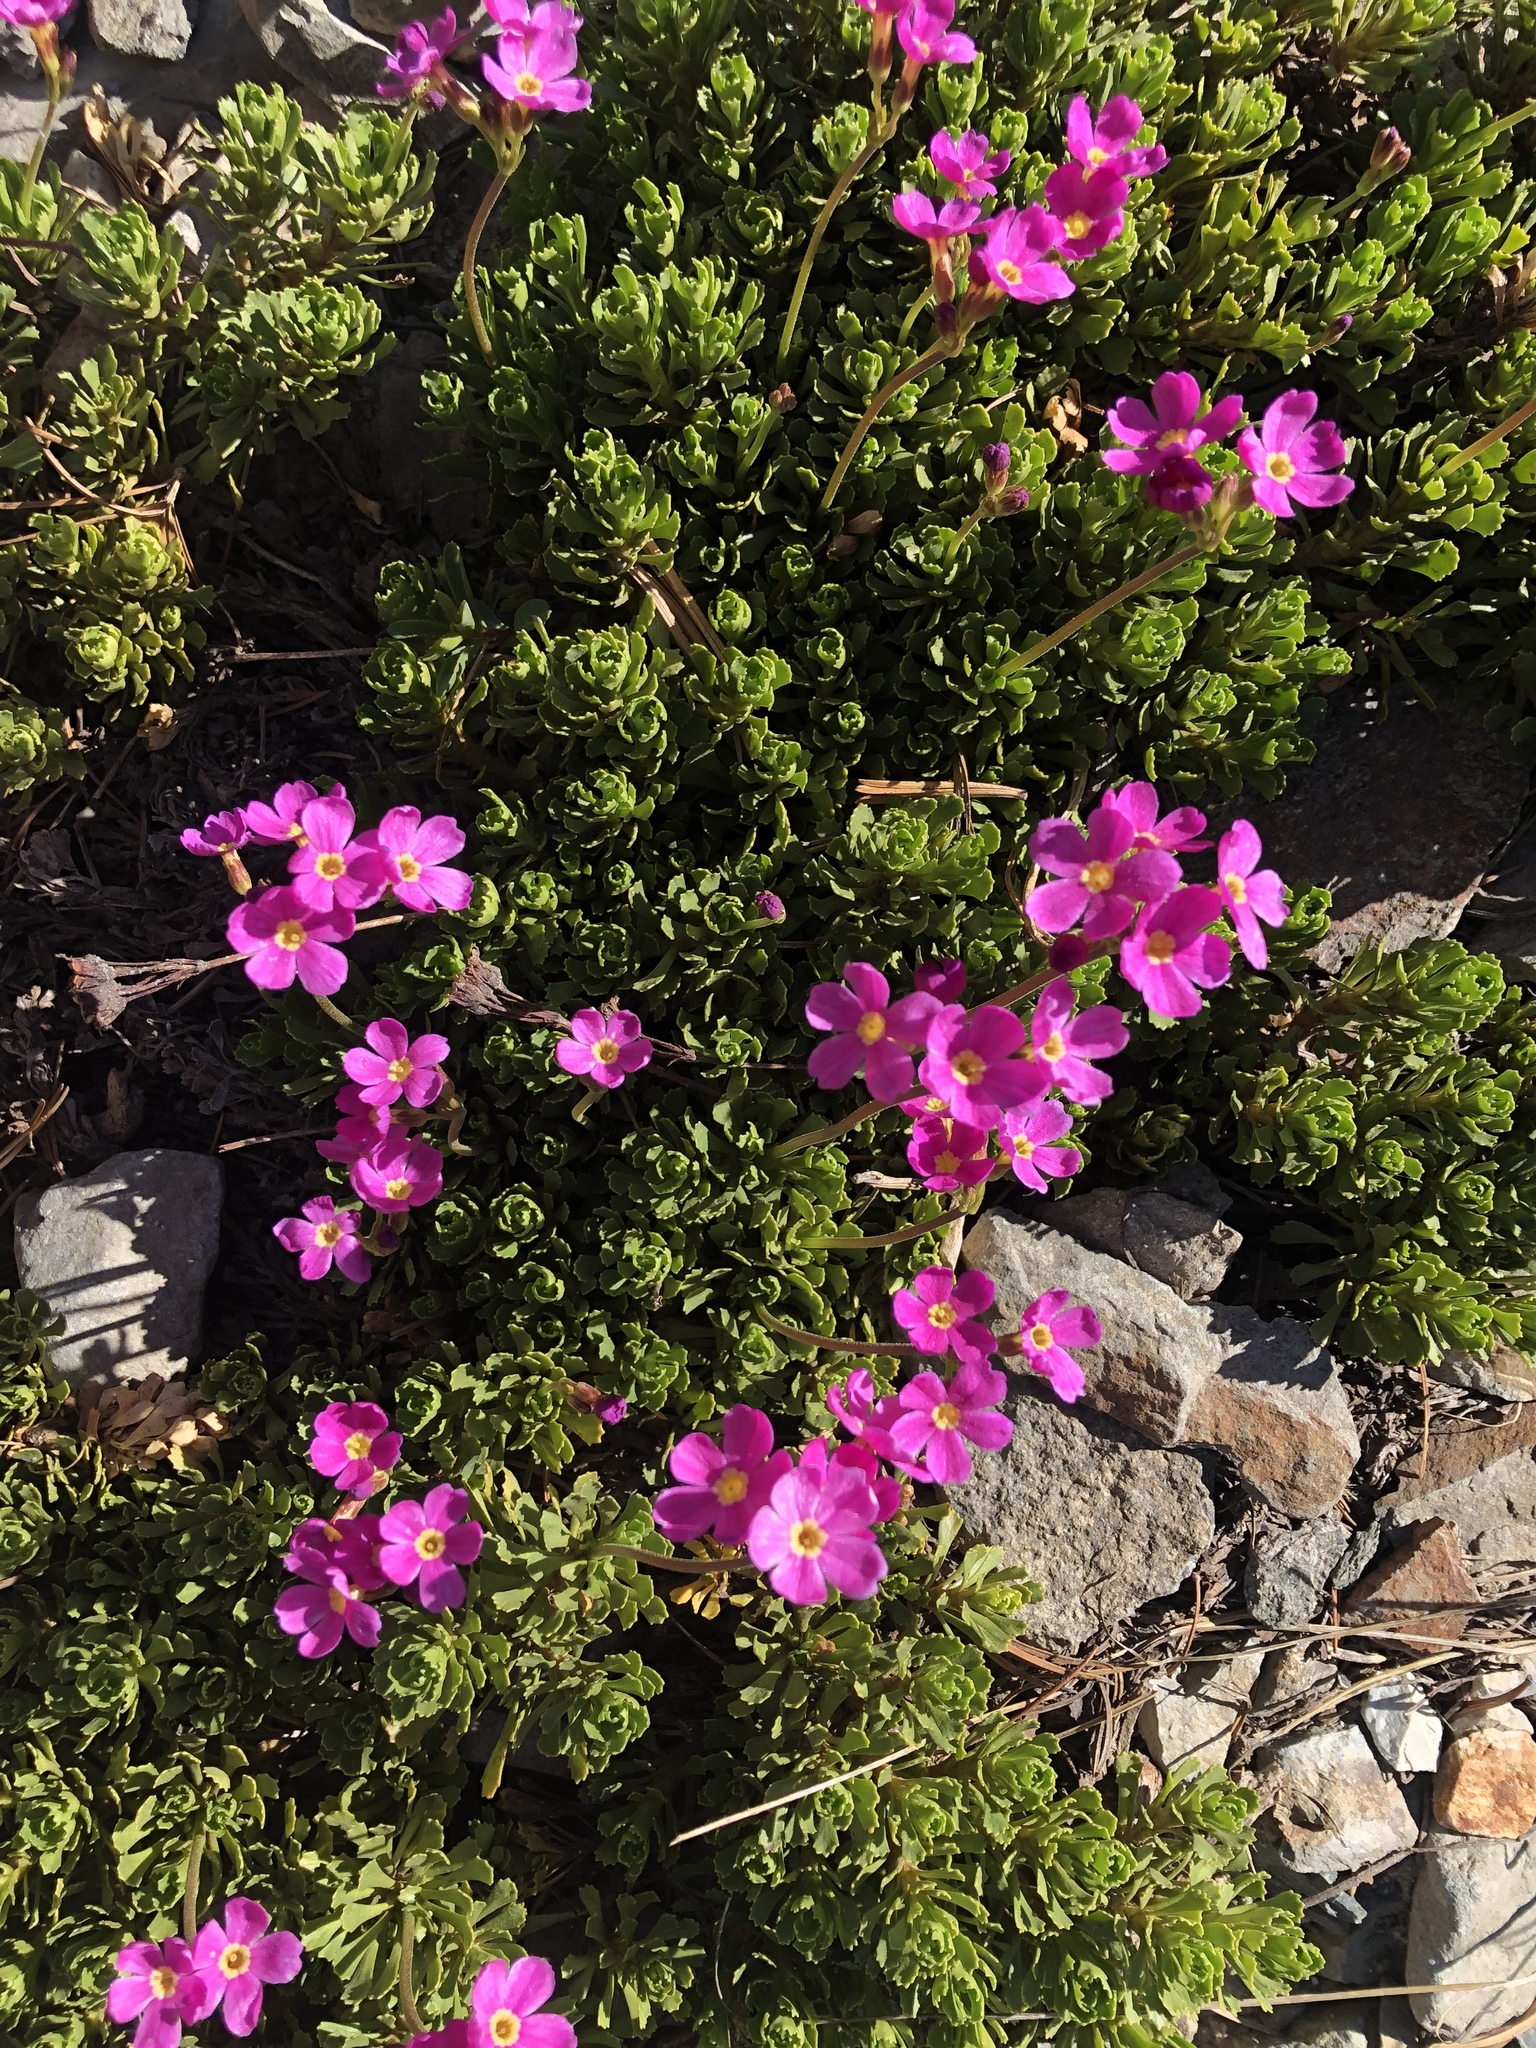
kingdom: Plantae
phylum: Tracheophyta
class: Magnoliopsida
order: Ericales
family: Primulaceae
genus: Primula
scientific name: Primula suffrutescens
